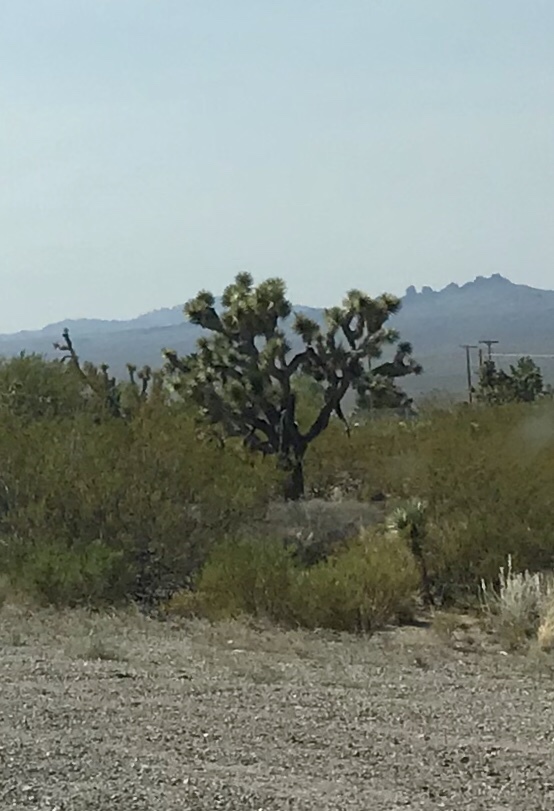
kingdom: Plantae
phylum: Tracheophyta
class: Liliopsida
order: Asparagales
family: Asparagaceae
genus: Yucca
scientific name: Yucca brevifolia
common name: Joshua tree
